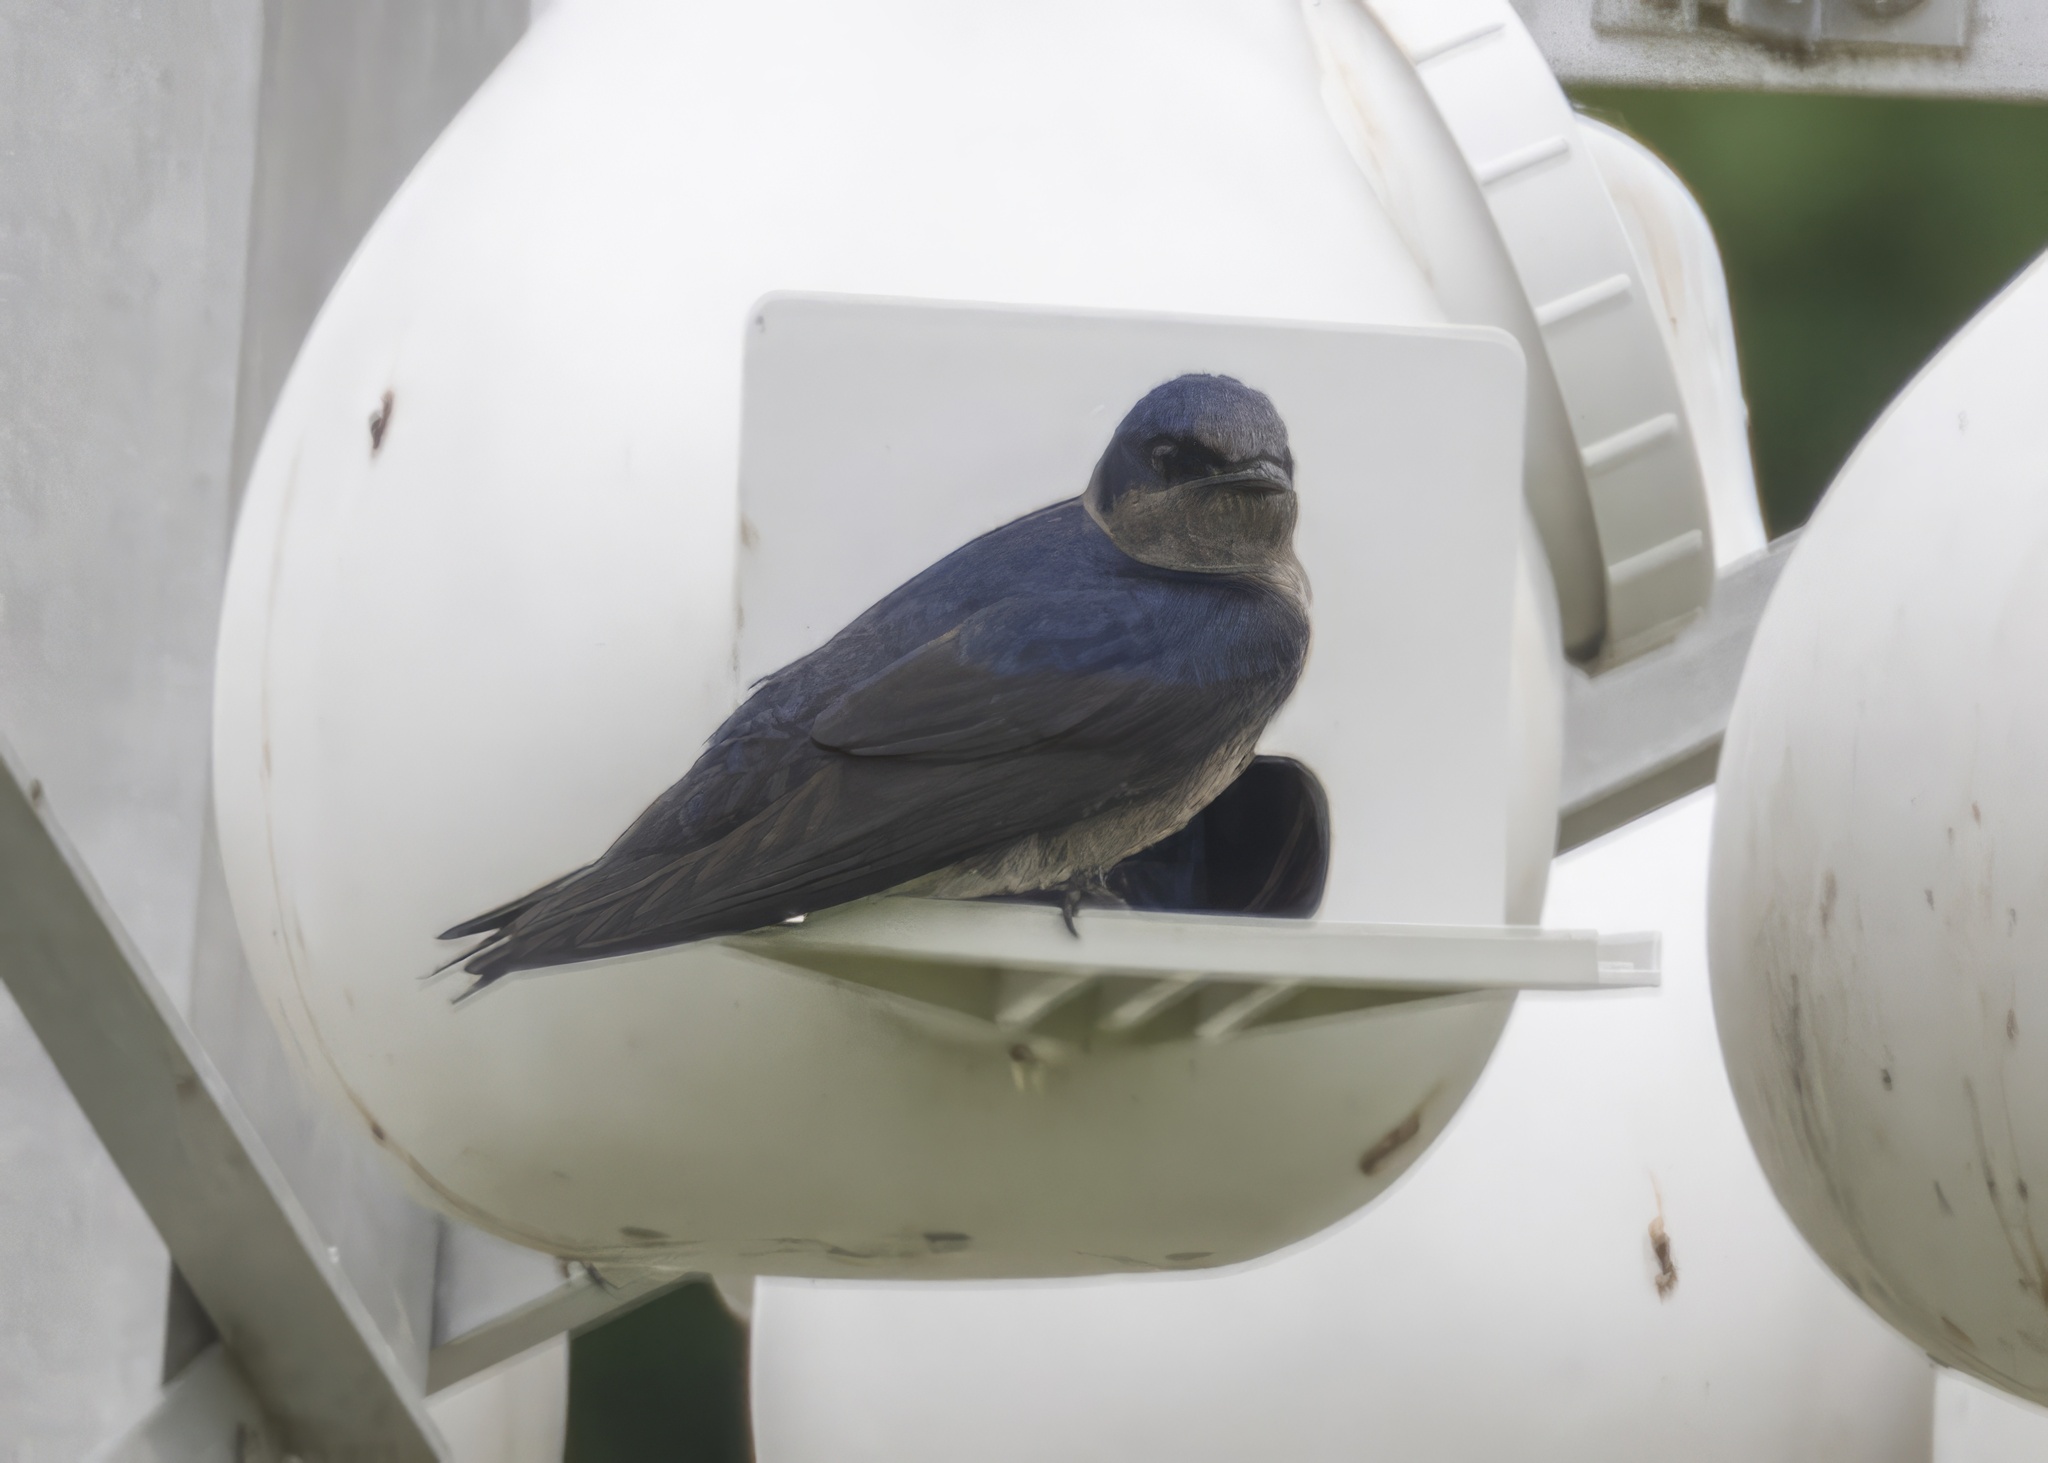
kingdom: Animalia
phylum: Chordata
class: Aves
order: Passeriformes
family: Hirundinidae
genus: Progne
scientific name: Progne subis
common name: Purple martin
